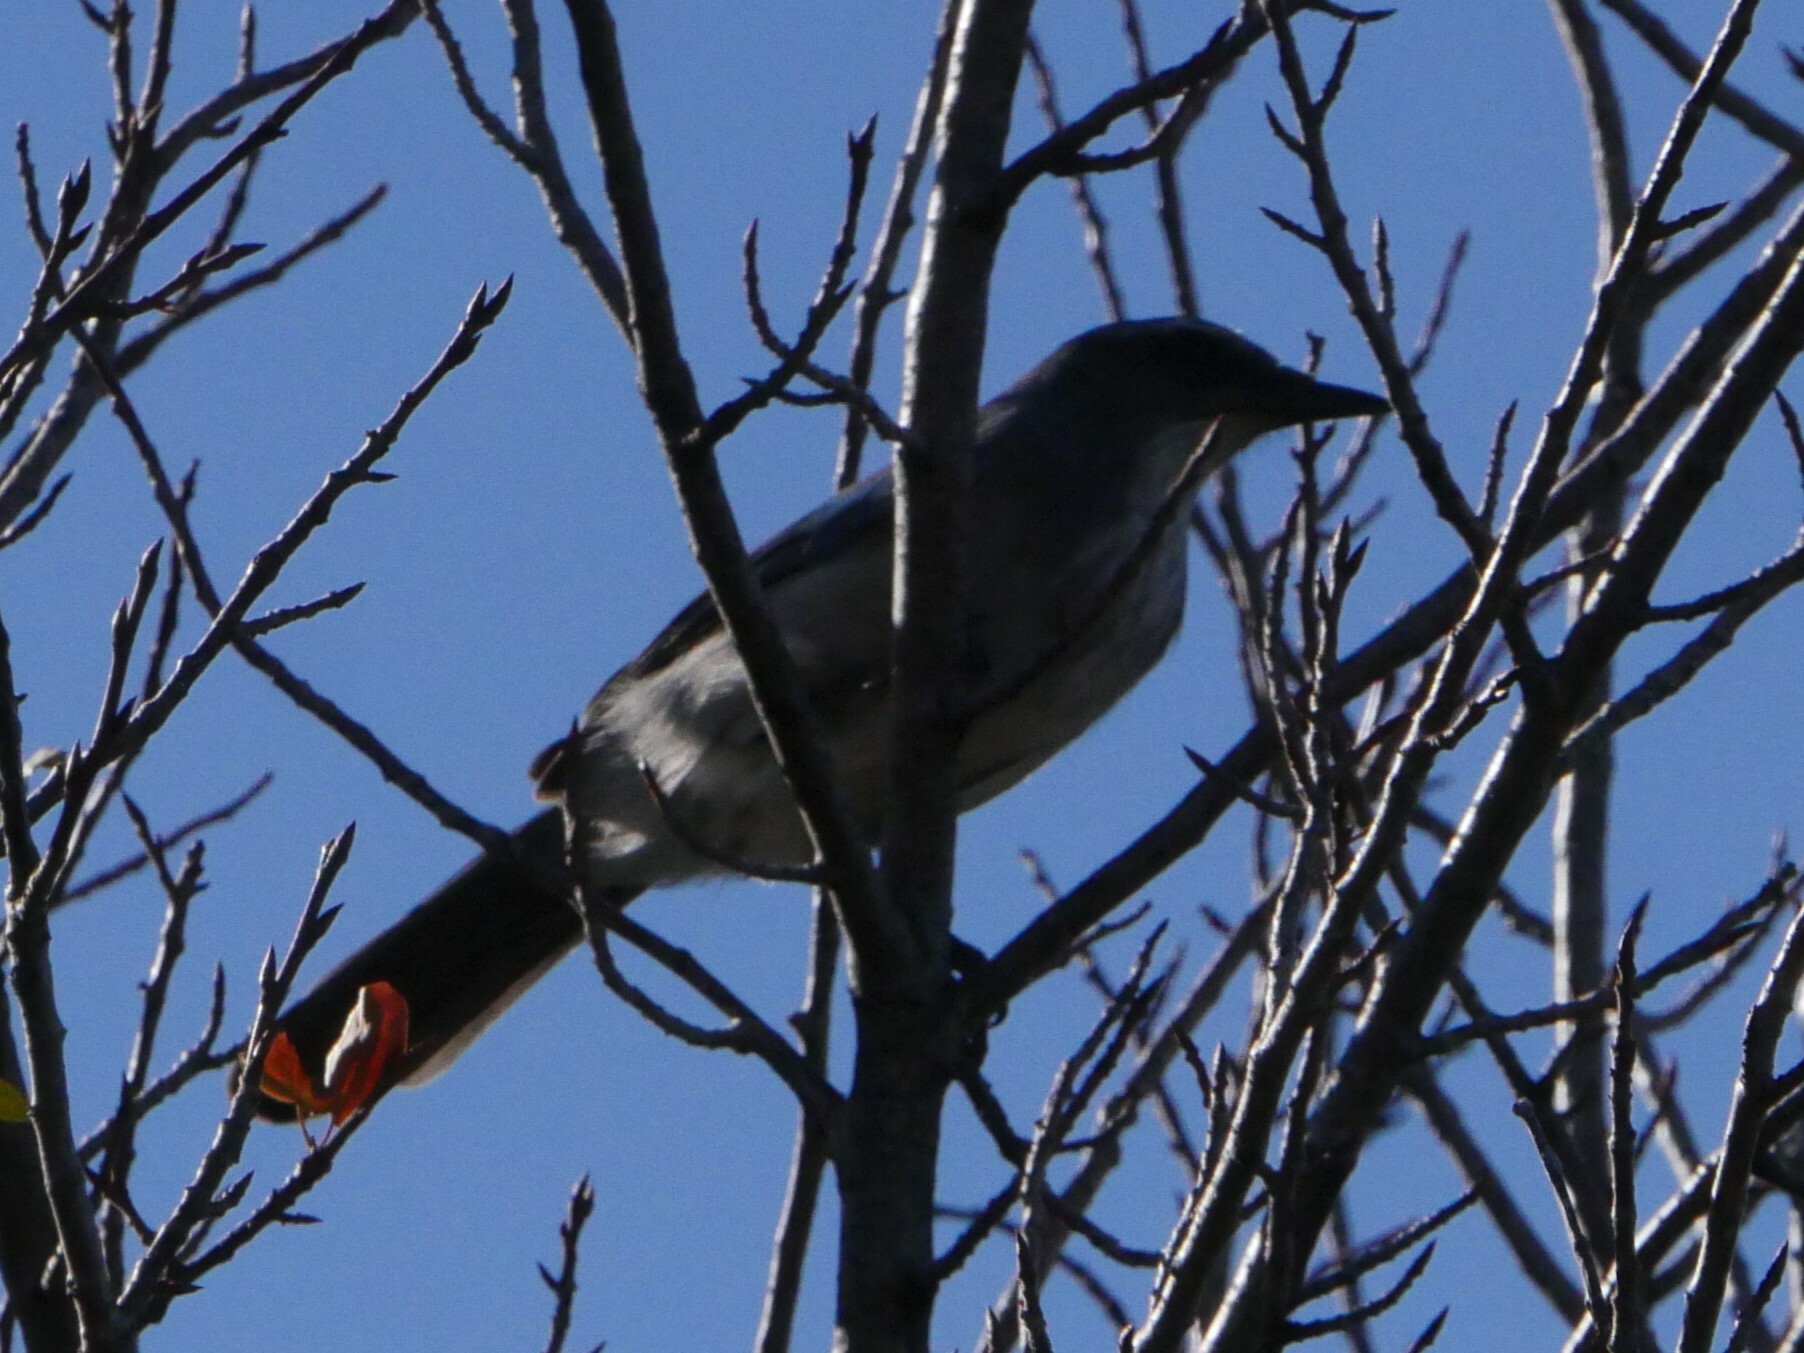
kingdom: Animalia
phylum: Chordata
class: Aves
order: Passeriformes
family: Corvidae
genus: Aphelocoma
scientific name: Aphelocoma woodhouseii
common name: Woodhouse's scrub-jay
